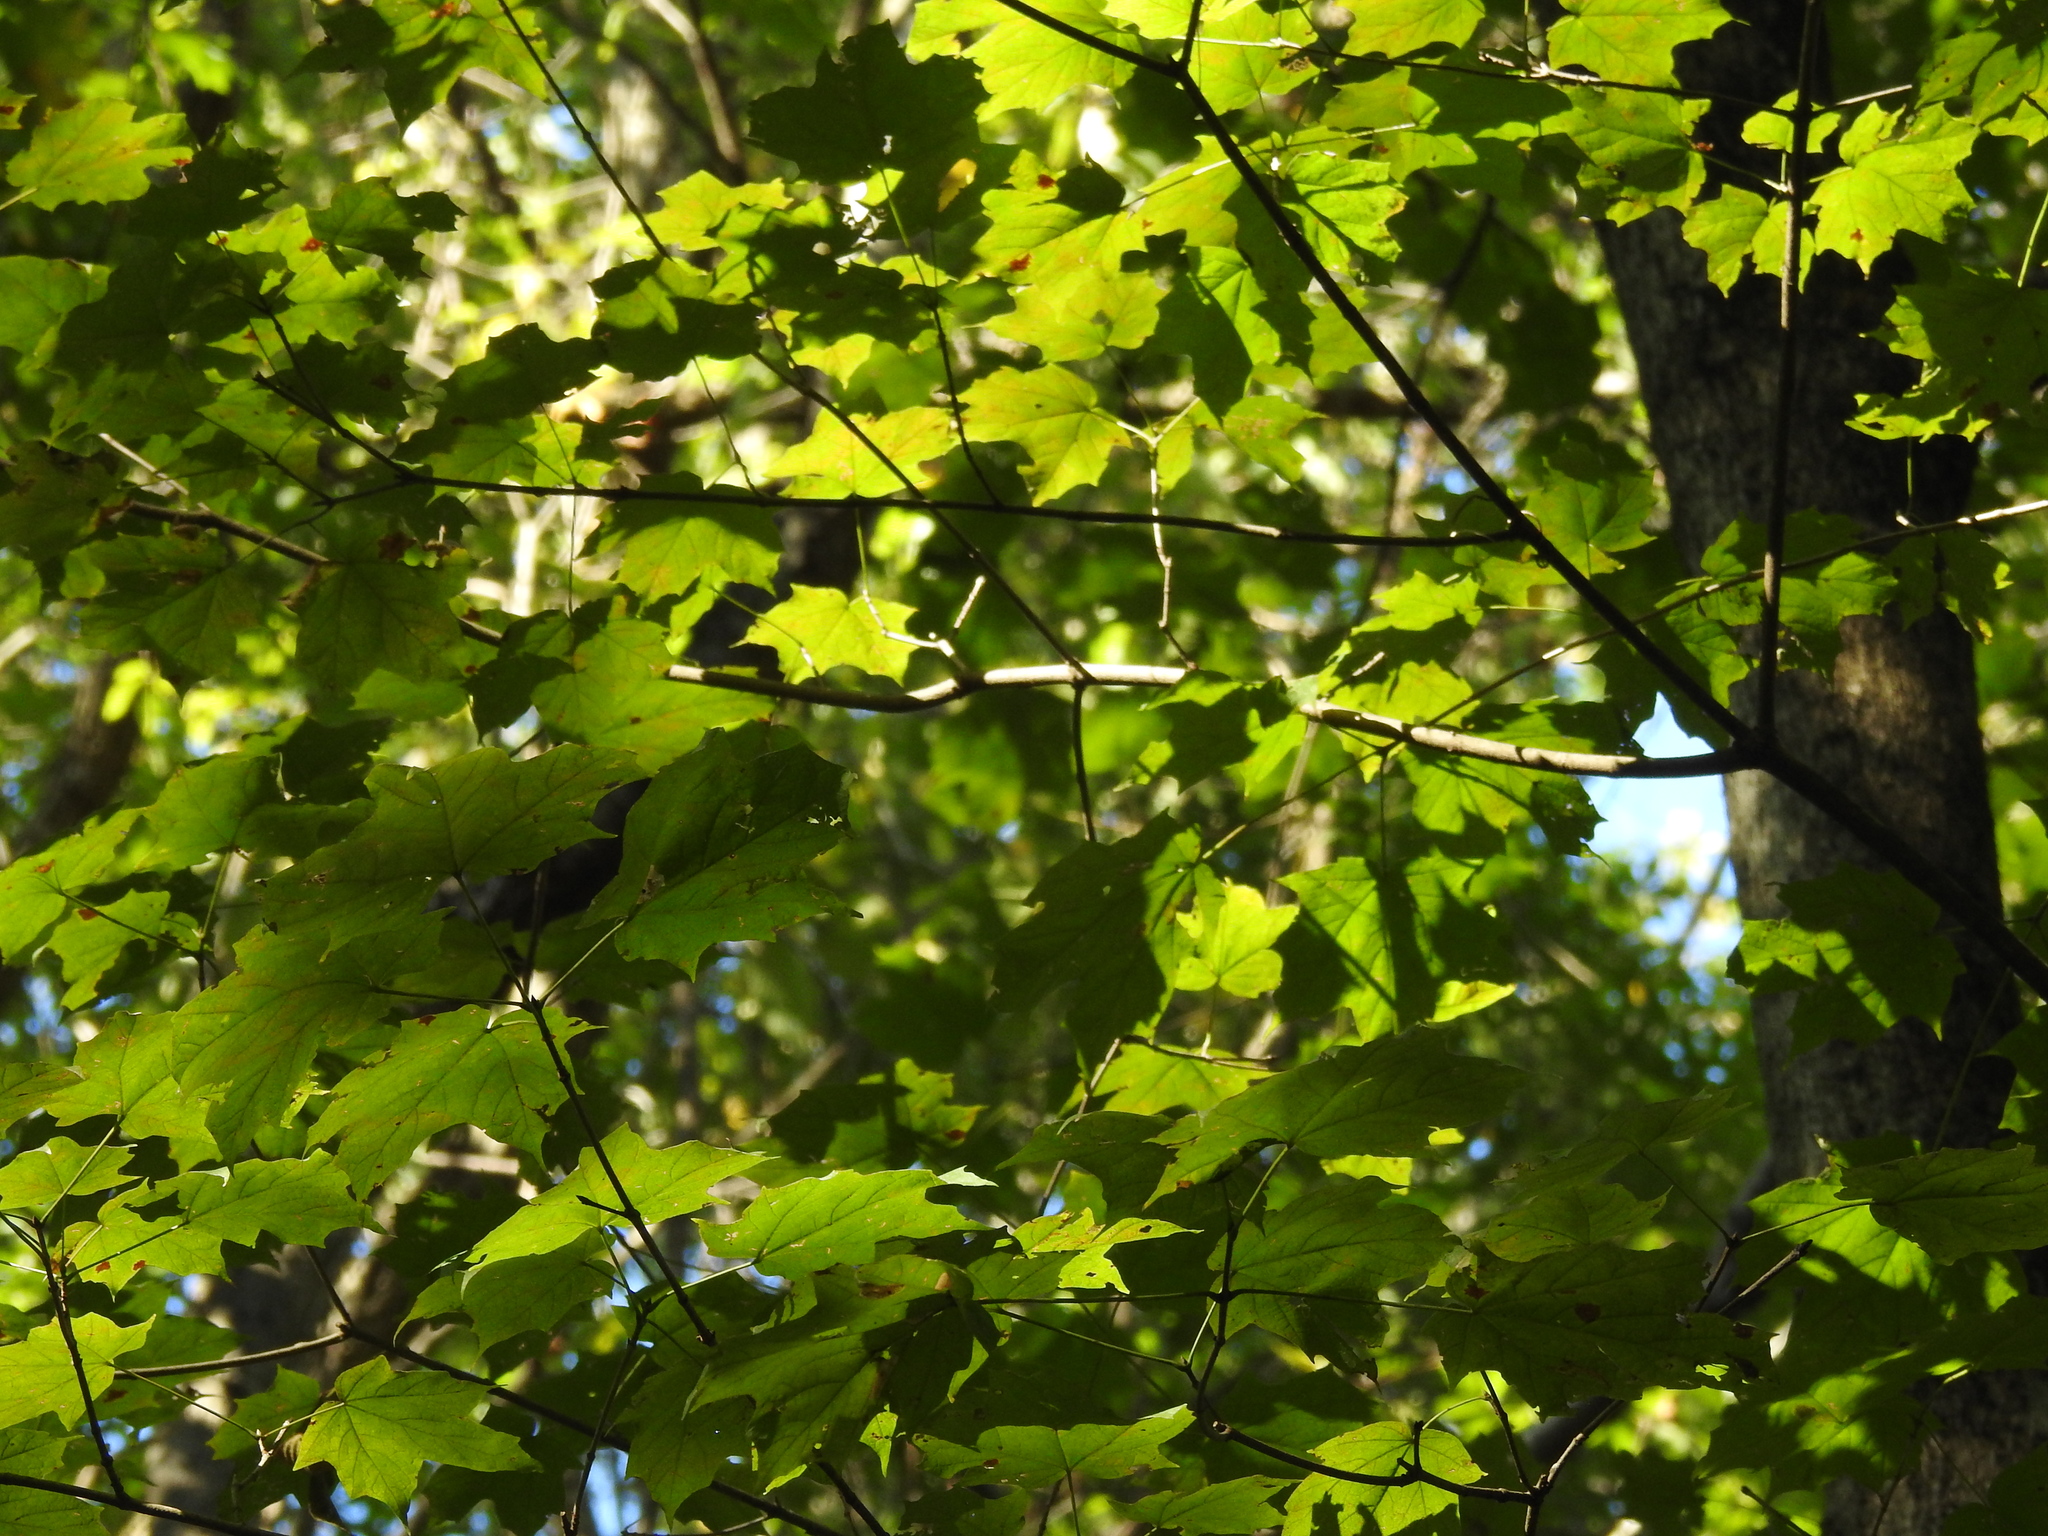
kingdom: Plantae
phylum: Tracheophyta
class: Magnoliopsida
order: Sapindales
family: Sapindaceae
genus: Acer
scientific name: Acer saccharum
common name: Sugar maple
